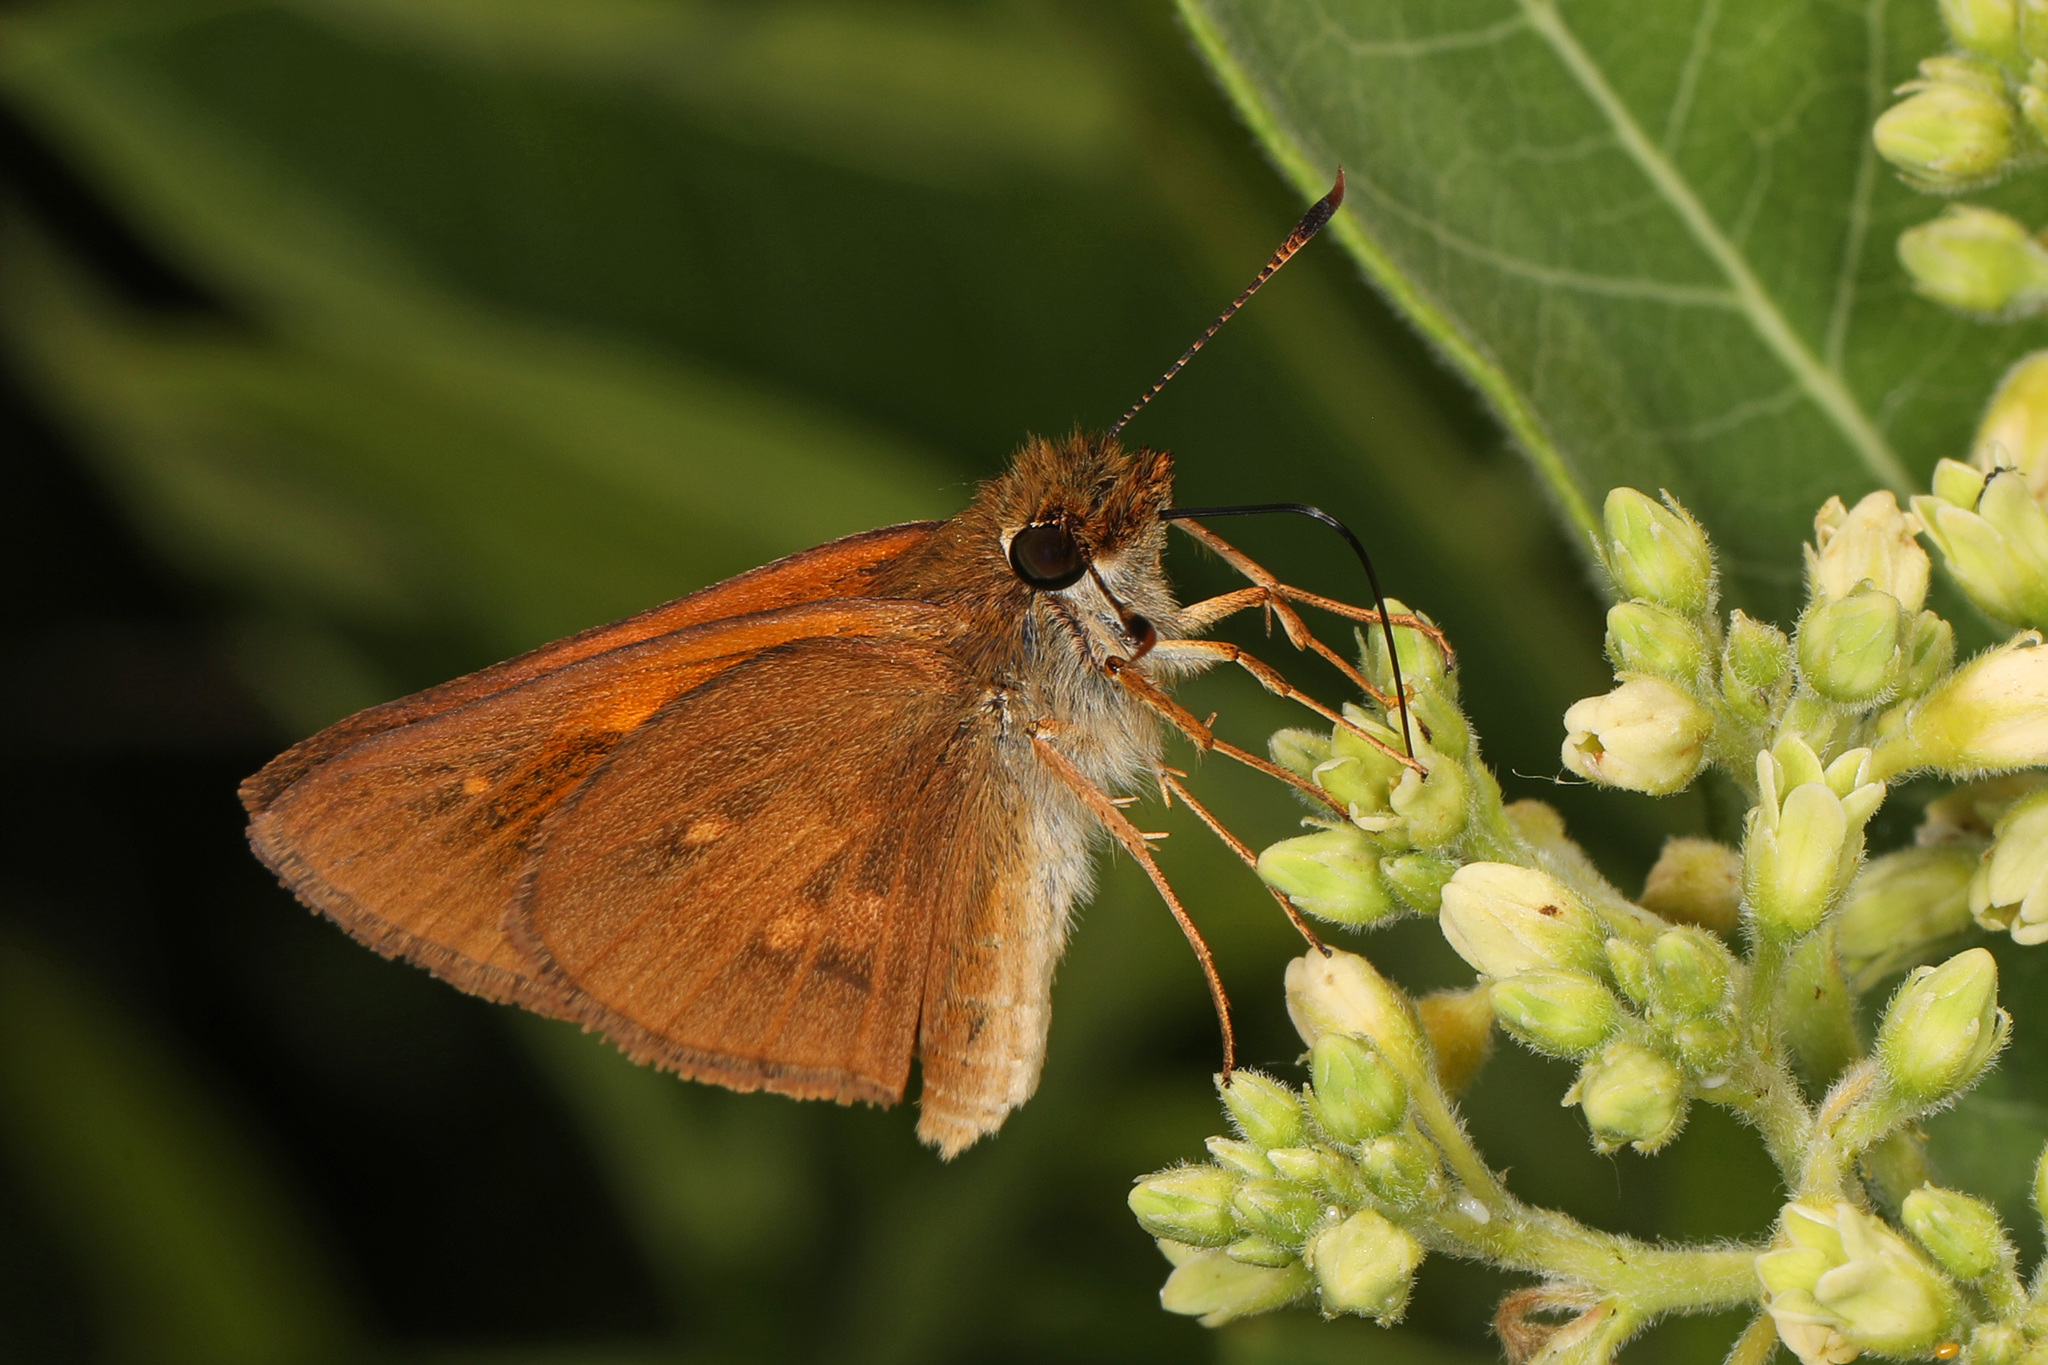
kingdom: Animalia
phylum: Arthropoda
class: Insecta
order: Lepidoptera
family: Hesperiidae
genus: Poanes
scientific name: Poanes viator
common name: Broad-winged skipper
